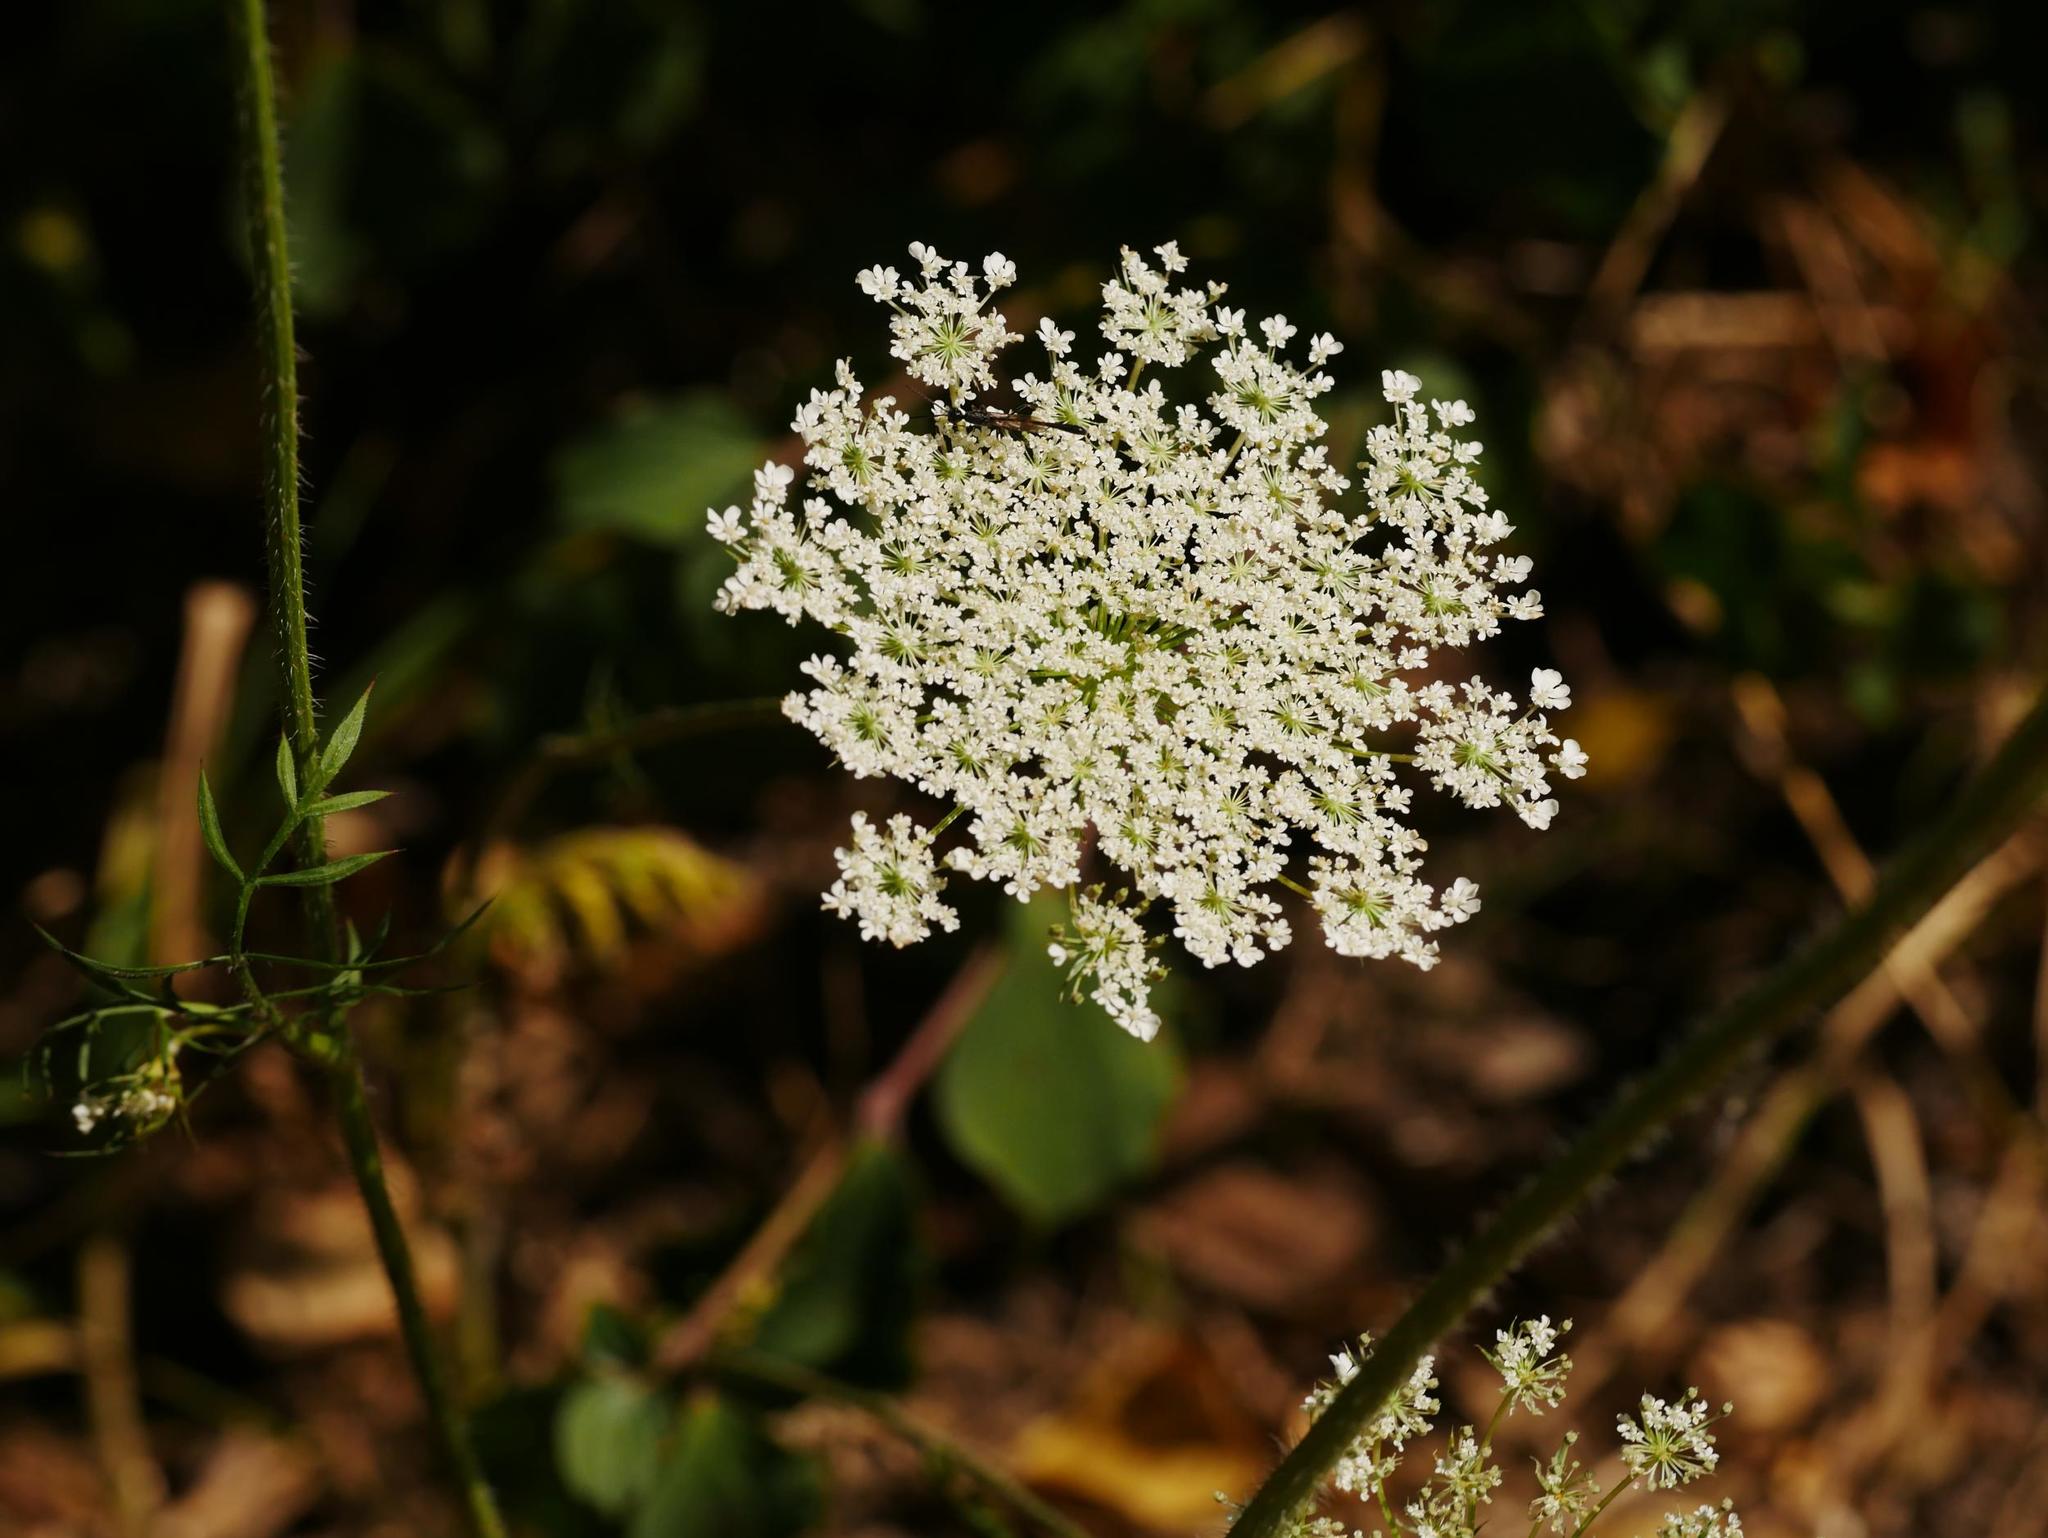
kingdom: Plantae
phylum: Tracheophyta
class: Magnoliopsida
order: Apiales
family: Apiaceae
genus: Daucus
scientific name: Daucus carota
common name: Wild carrot
